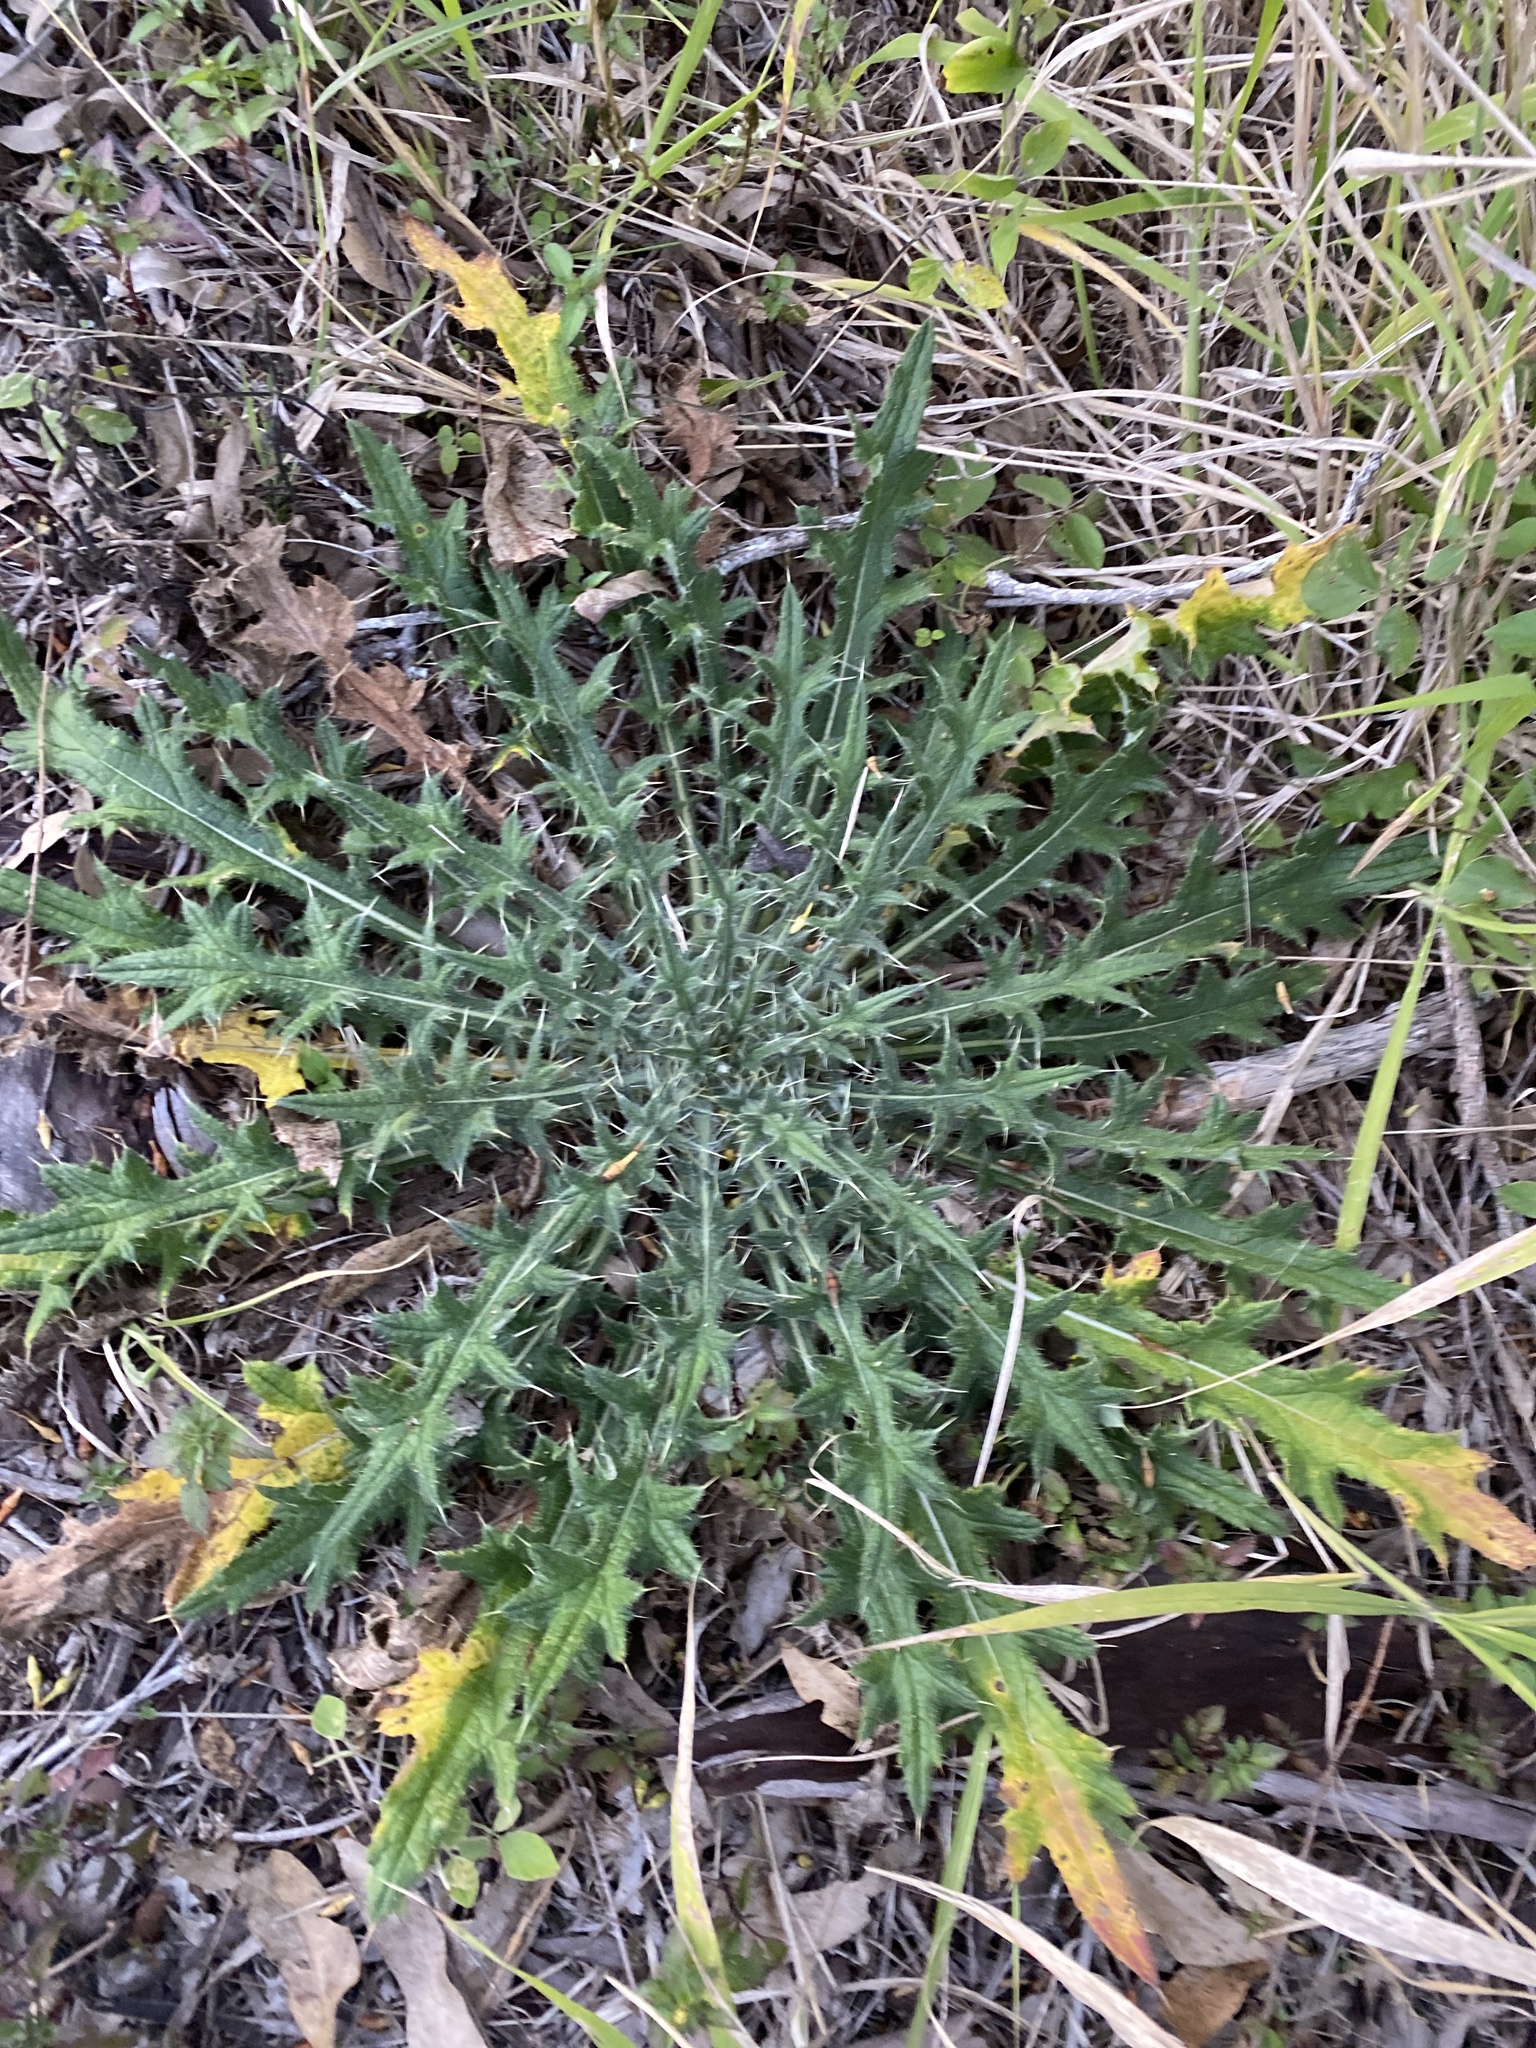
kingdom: Plantae
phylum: Tracheophyta
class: Magnoliopsida
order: Asterales
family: Asteraceae
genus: Cirsium
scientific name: Cirsium vulgare
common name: Bull thistle
